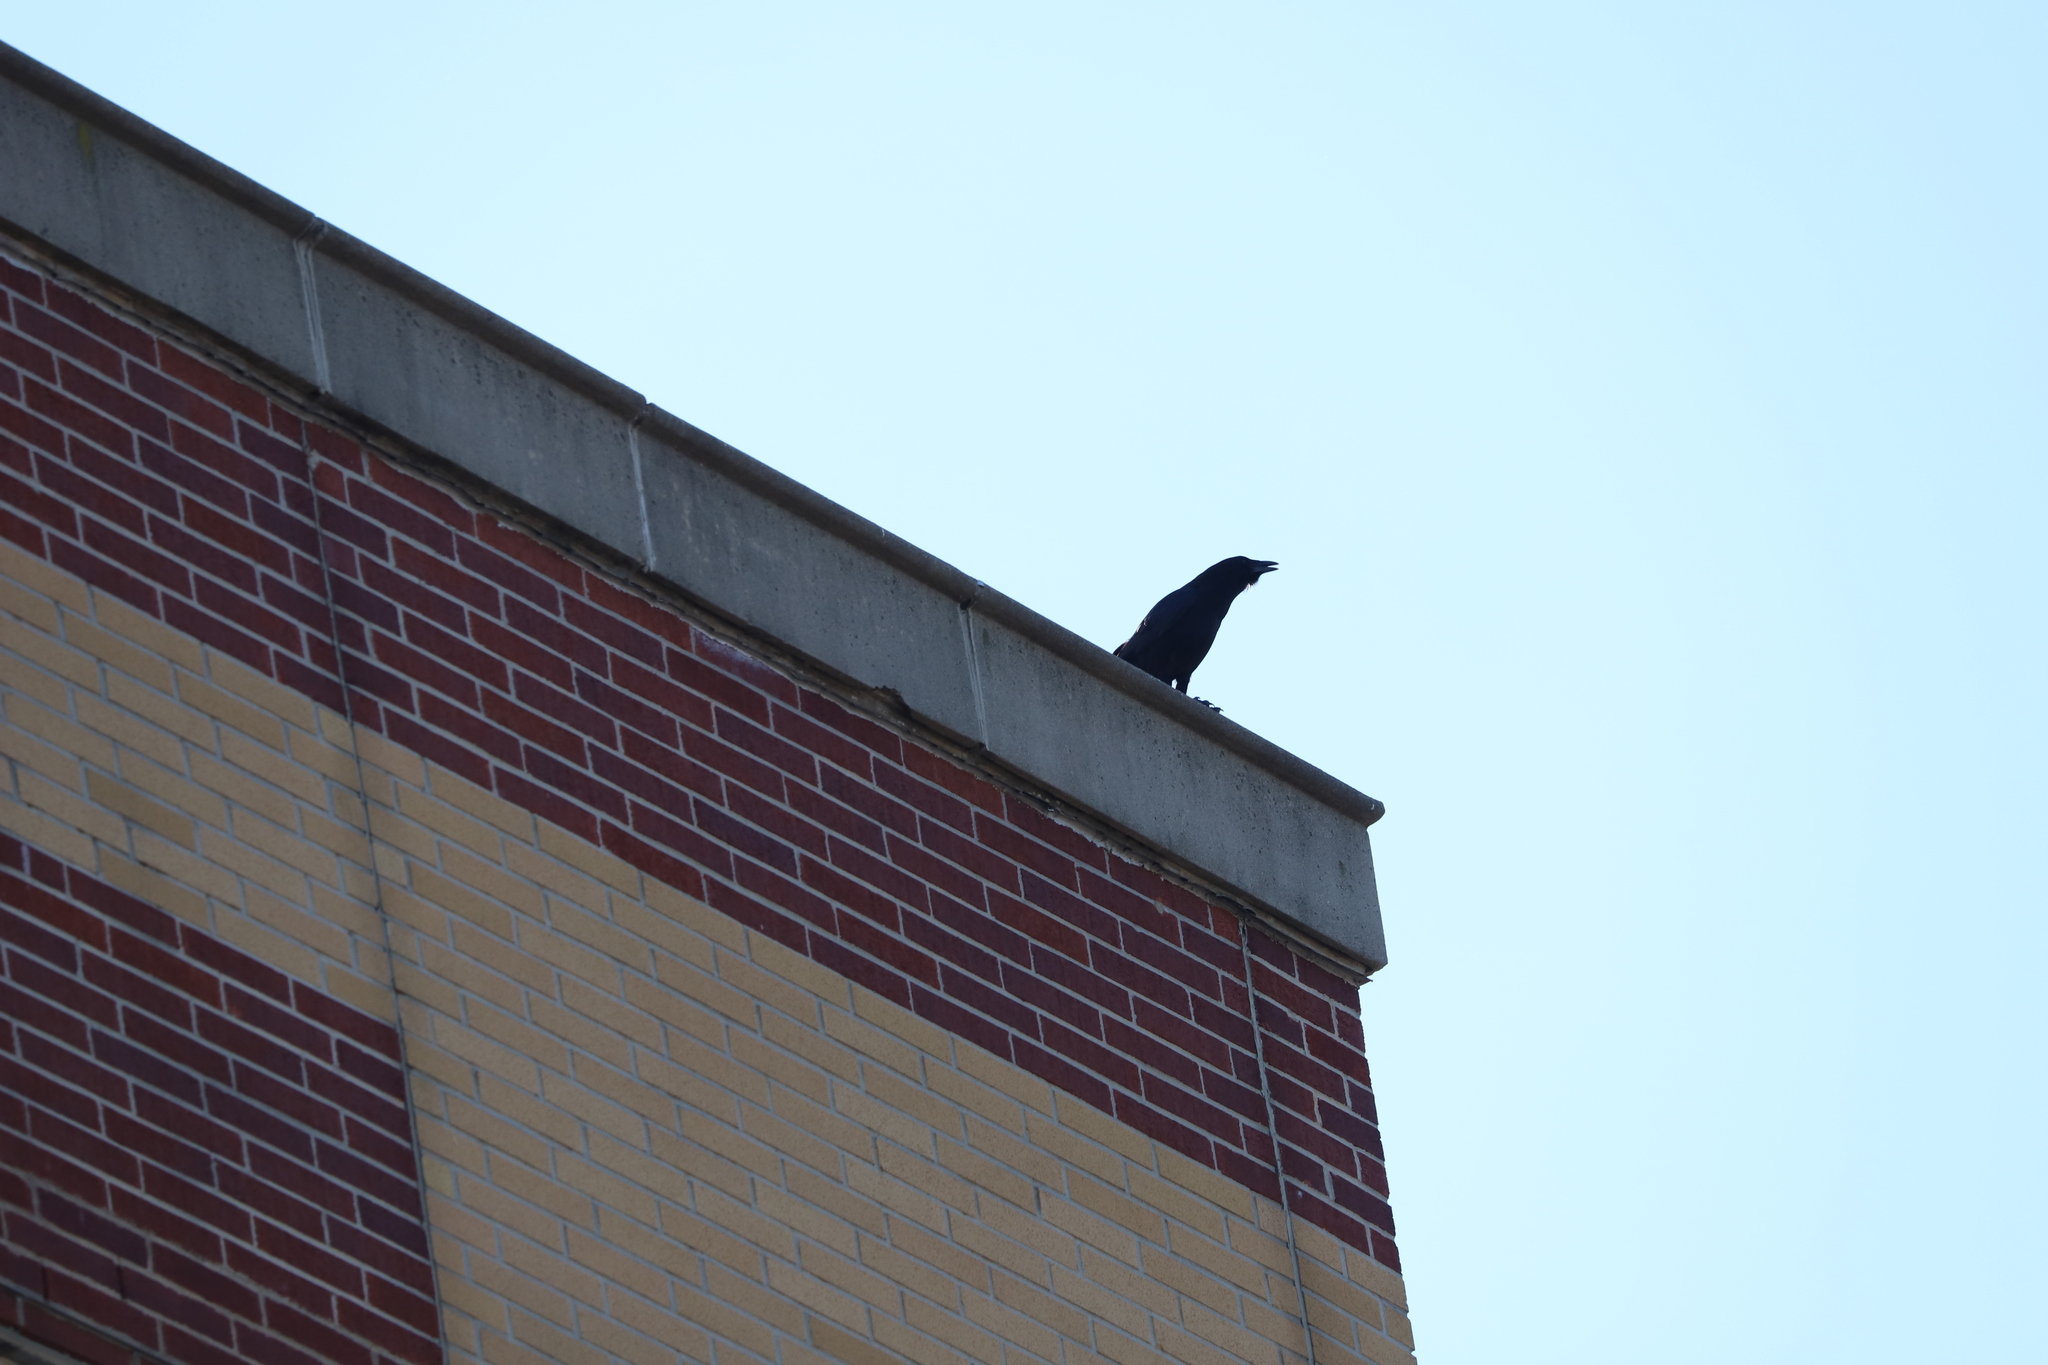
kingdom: Animalia
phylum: Chordata
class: Aves
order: Passeriformes
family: Corvidae
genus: Corvus
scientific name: Corvus
